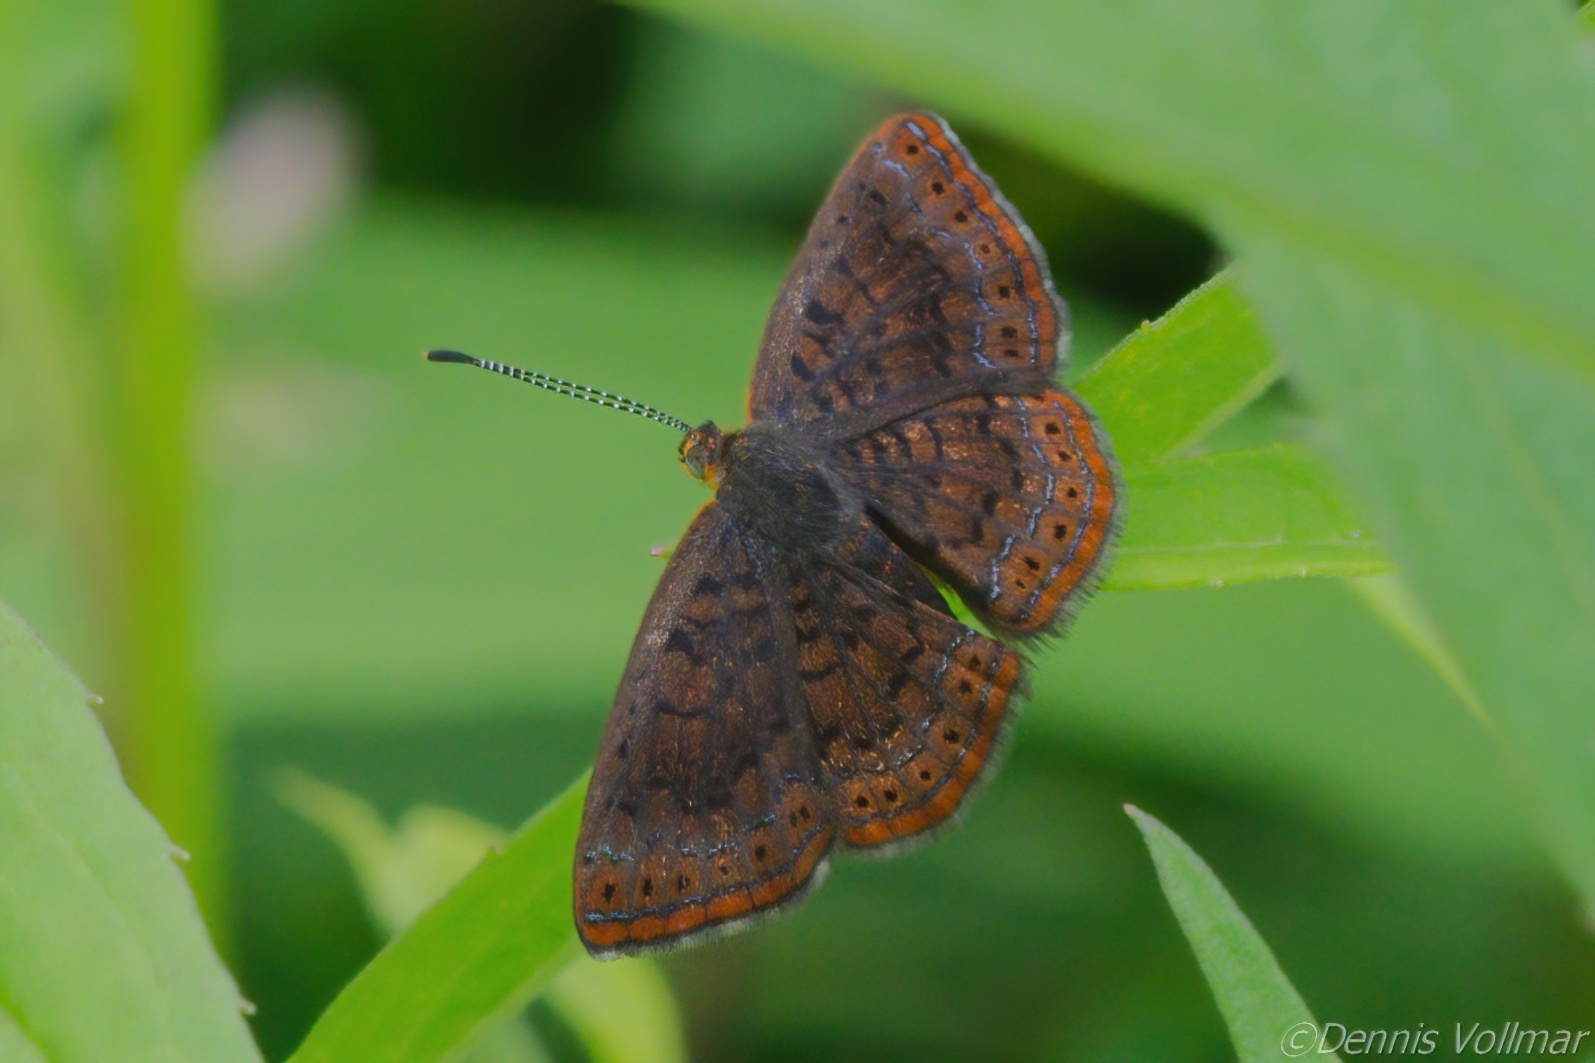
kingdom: Animalia
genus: Calephelis
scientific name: Calephelis borealis
